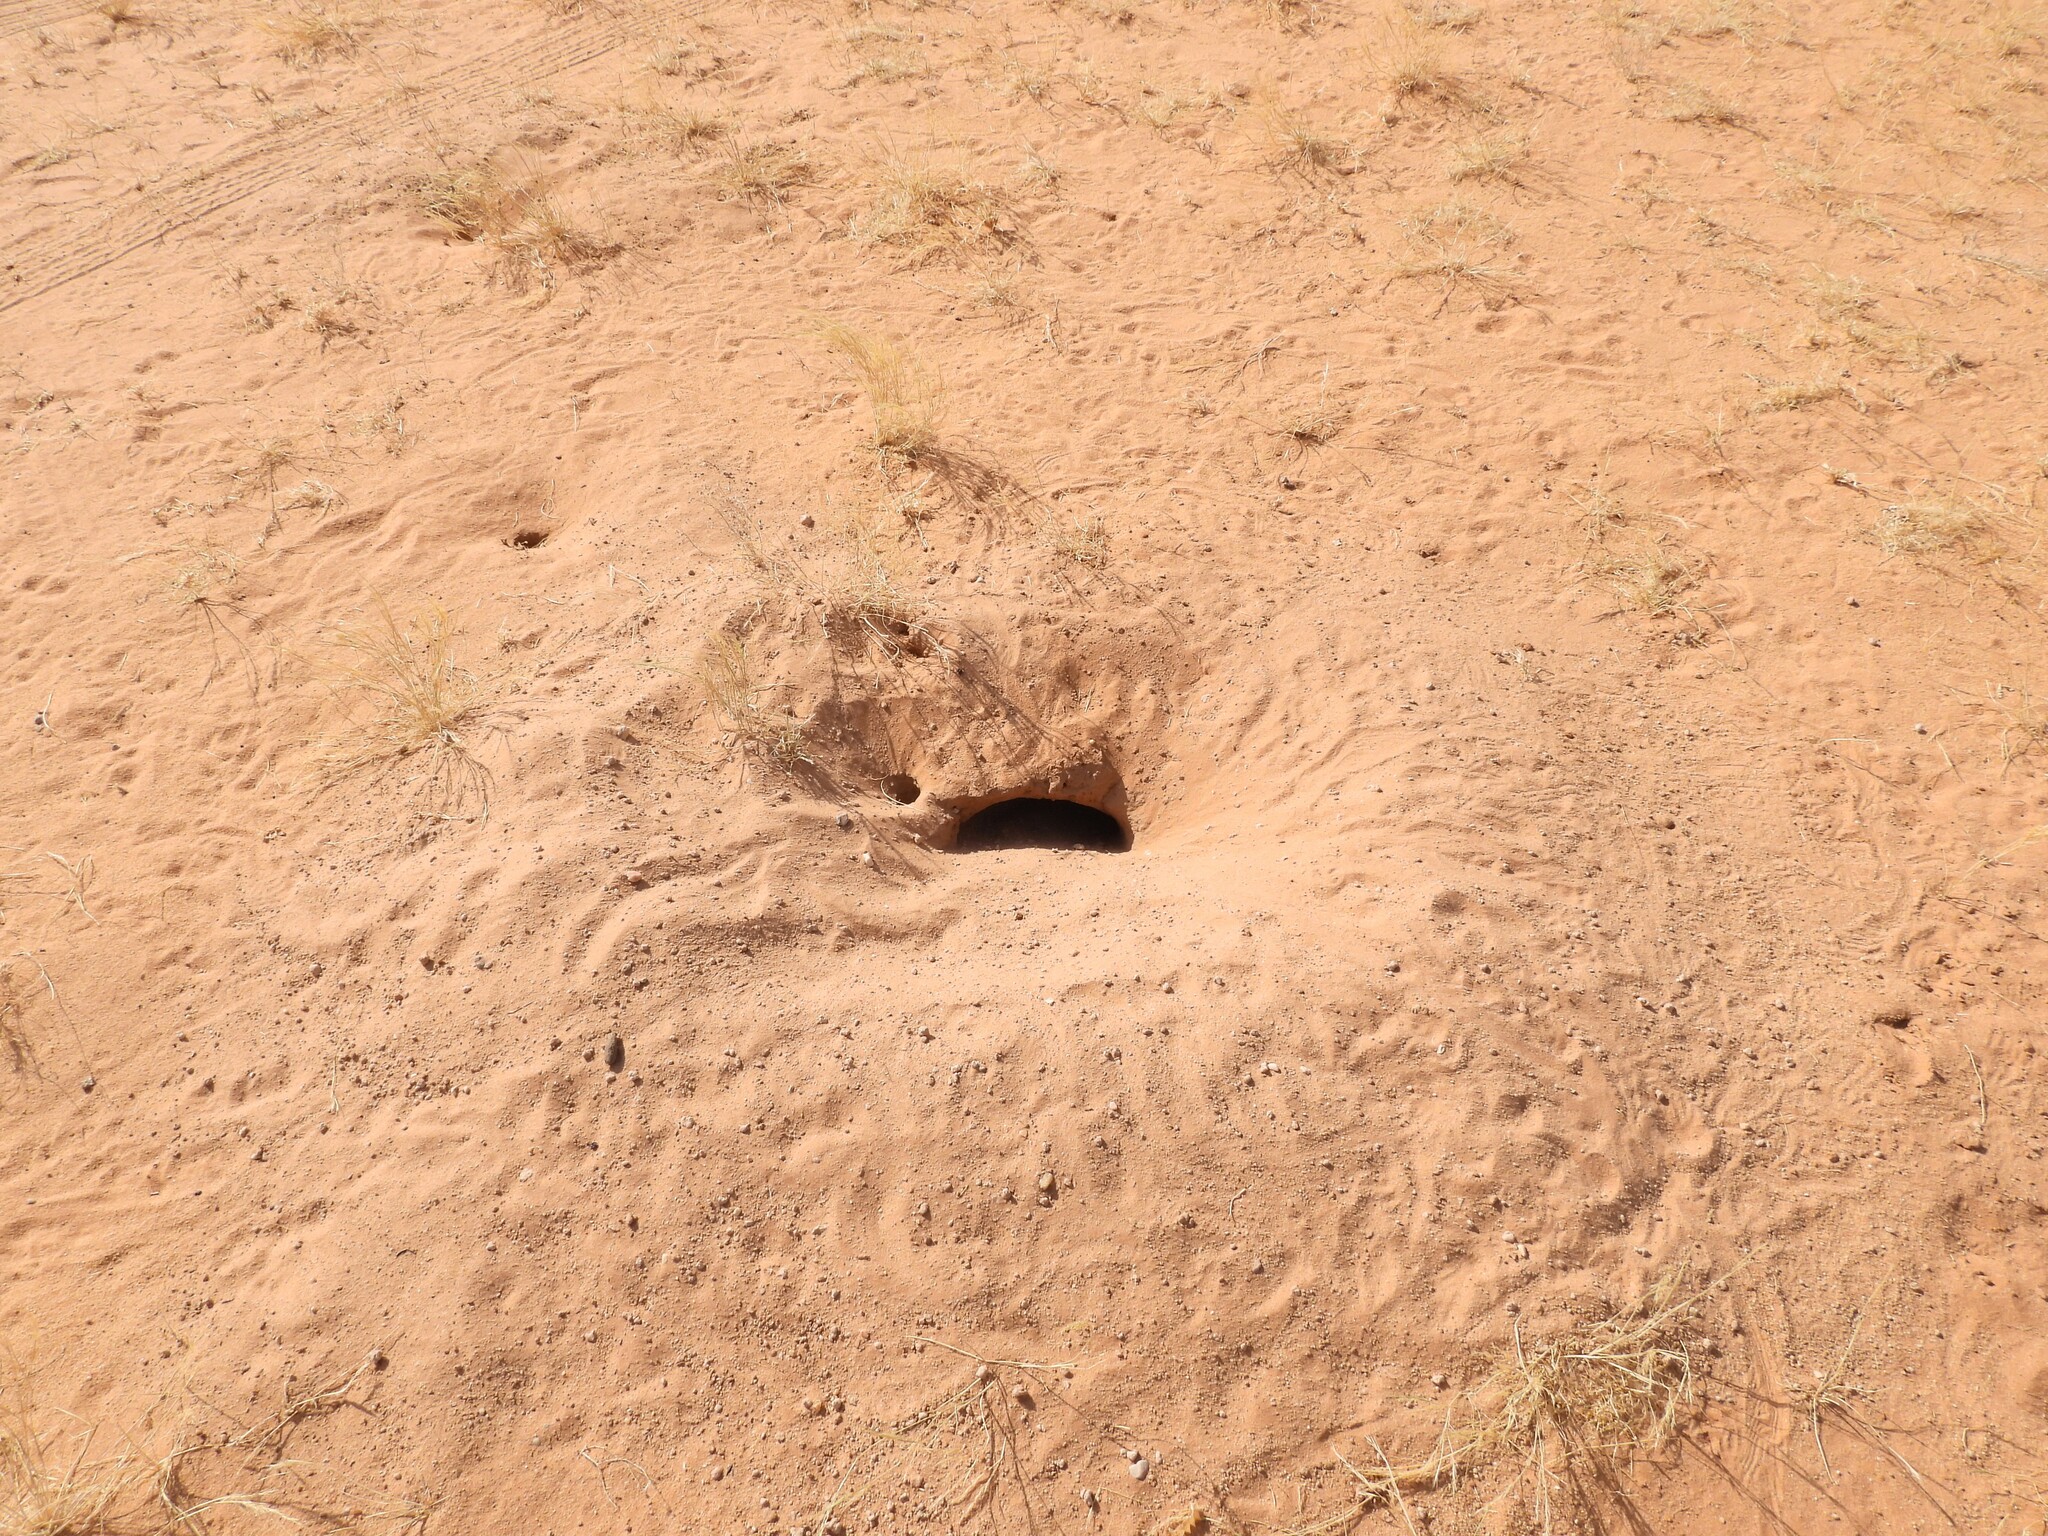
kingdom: Animalia
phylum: Chordata
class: Squamata
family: Agamidae
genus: Uromastyx
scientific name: Uromastyx aegyptia
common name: Egyptian mastigure
